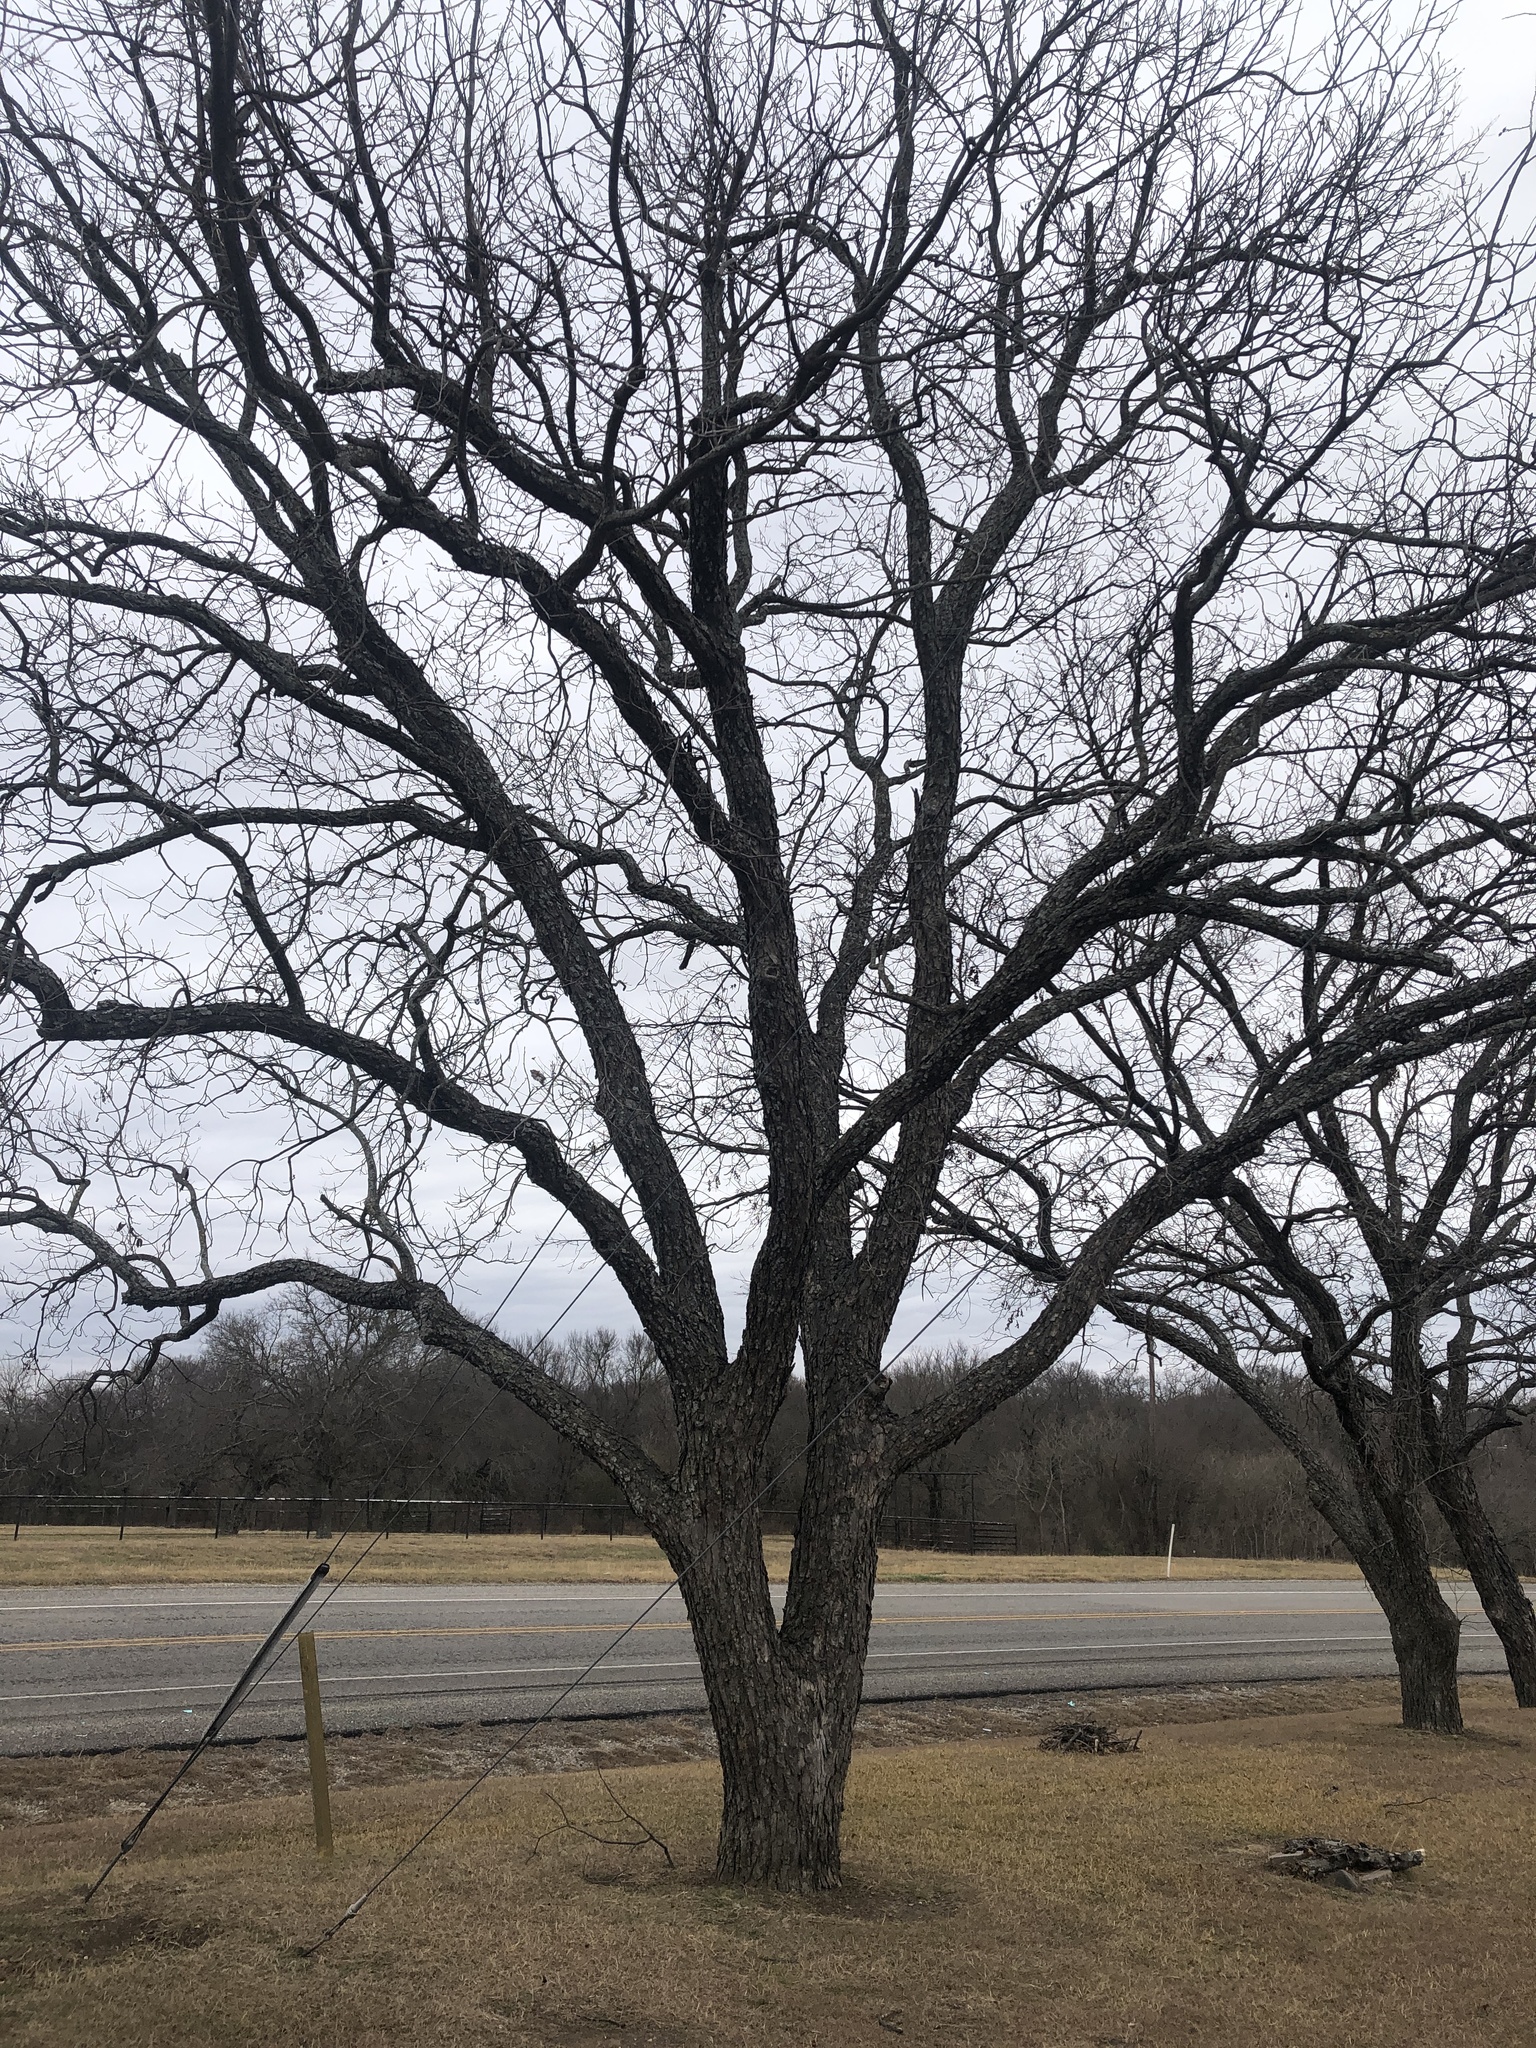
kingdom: Plantae
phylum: Tracheophyta
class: Magnoliopsida
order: Fagales
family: Juglandaceae
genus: Carya
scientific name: Carya illinoinensis
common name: Pecan
